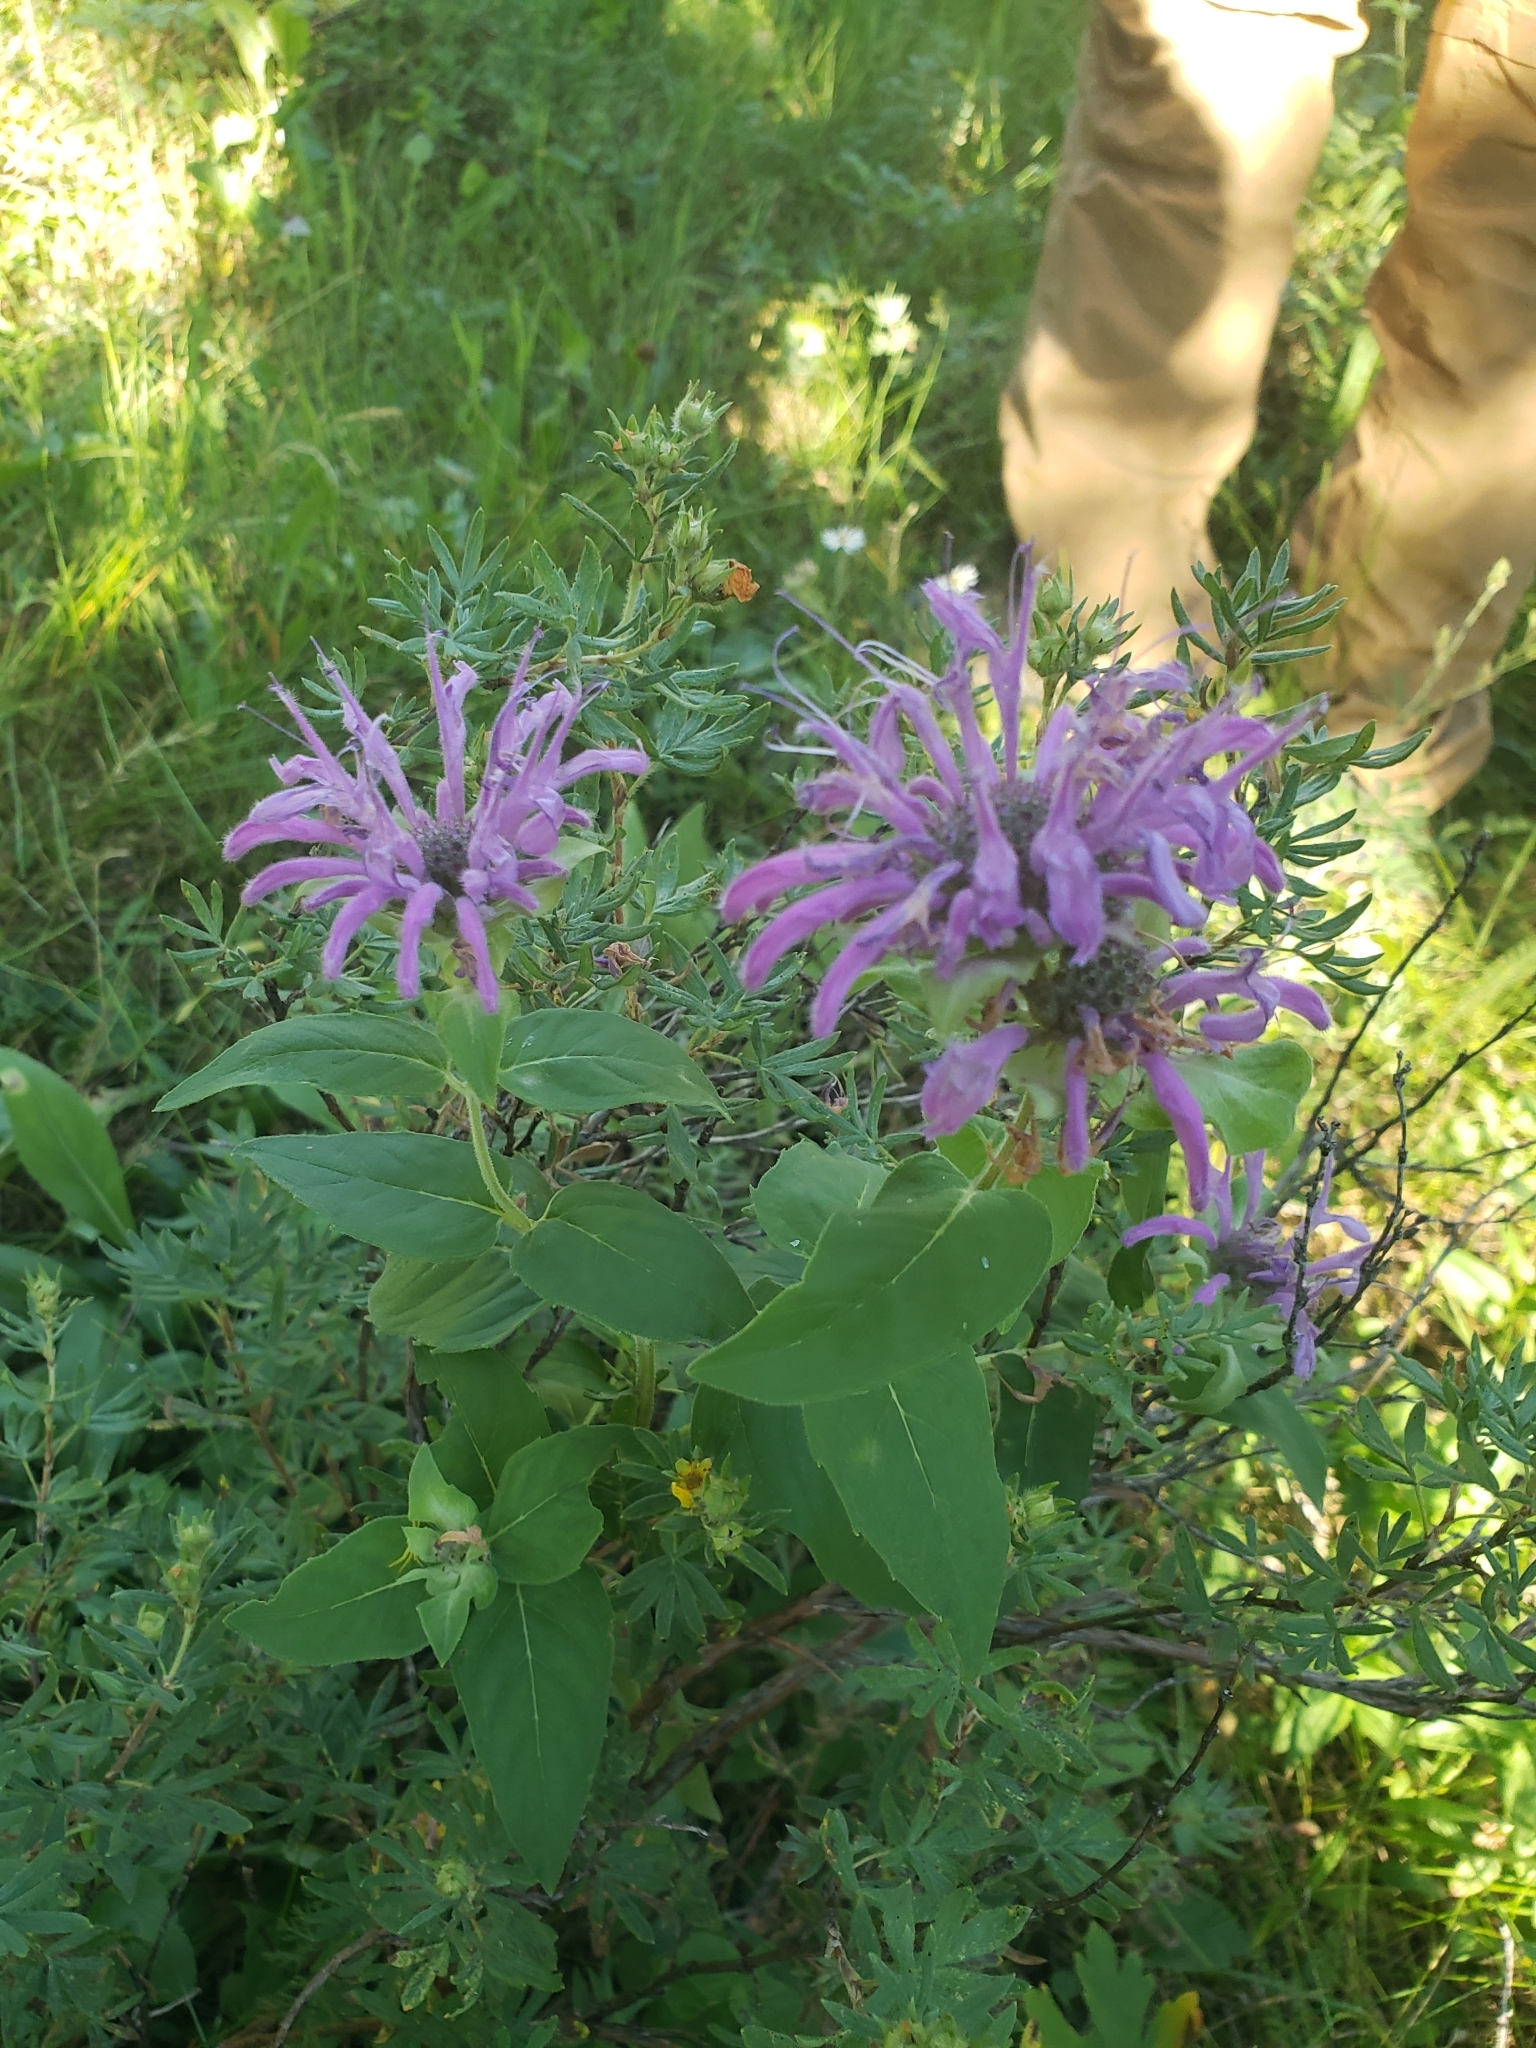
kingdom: Plantae
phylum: Tracheophyta
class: Magnoliopsida
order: Lamiales
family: Lamiaceae
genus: Monarda
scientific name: Monarda fistulosa
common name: Purple beebalm
